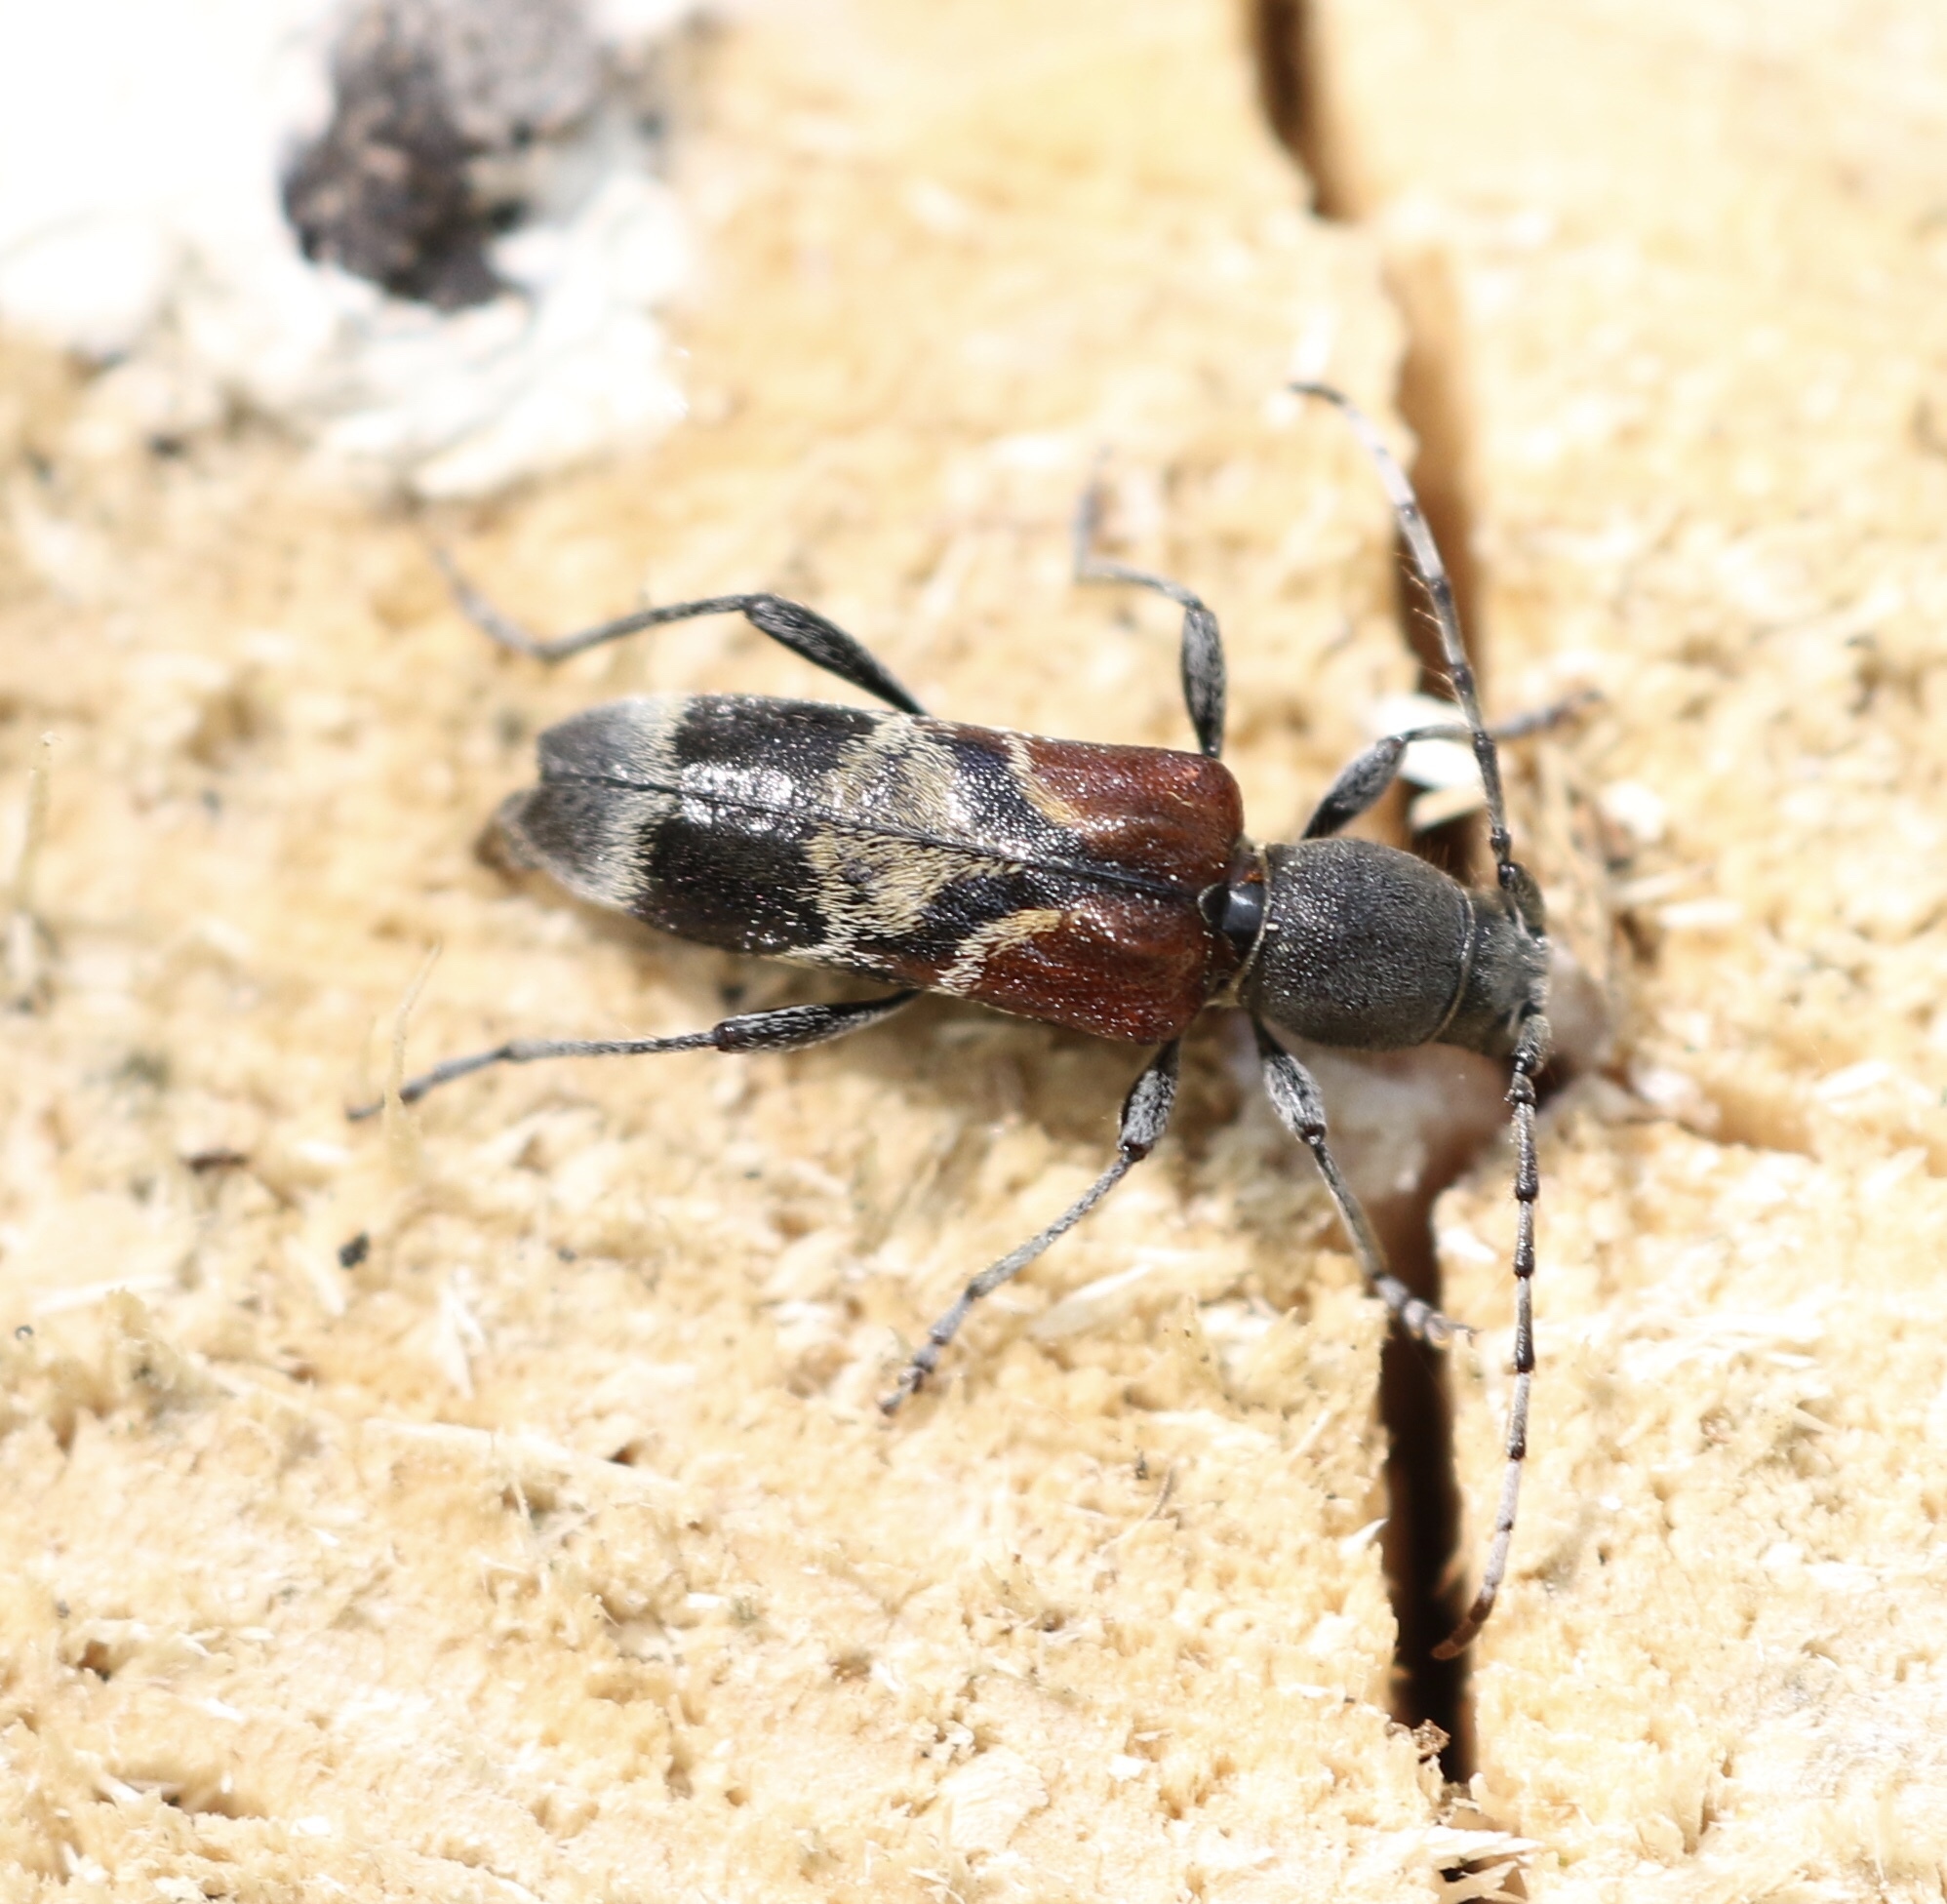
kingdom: Animalia
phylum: Arthropoda
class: Insecta
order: Coleoptera
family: Cerambycidae
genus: Anaglyptus
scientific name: Anaglyptus mysticus
